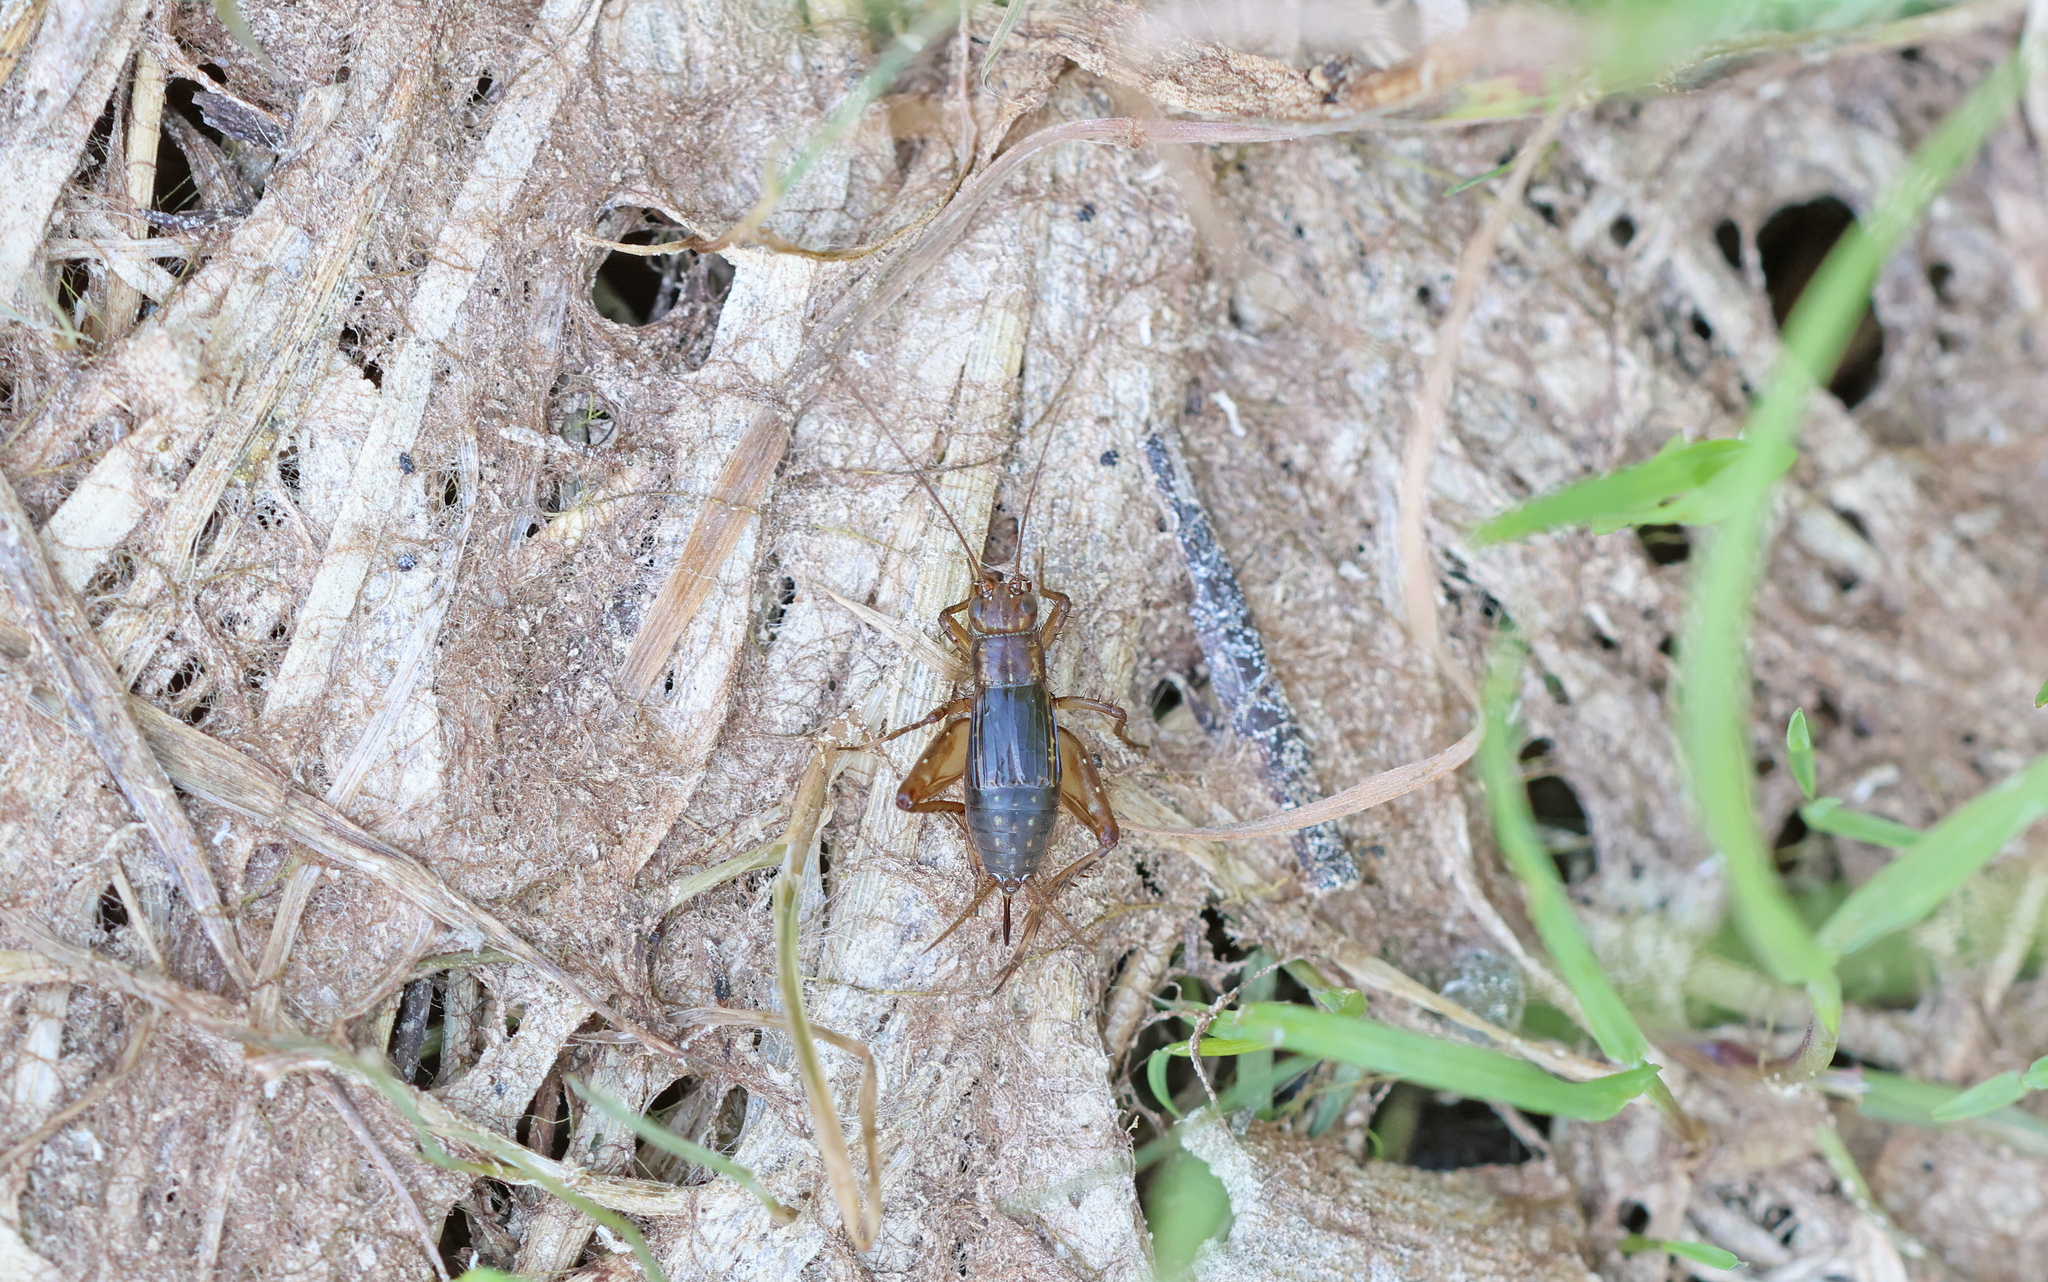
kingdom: Animalia
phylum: Arthropoda
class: Insecta
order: Orthoptera
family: Trigonidiidae
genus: Pteronemobius
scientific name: Pteronemobius heydenii
